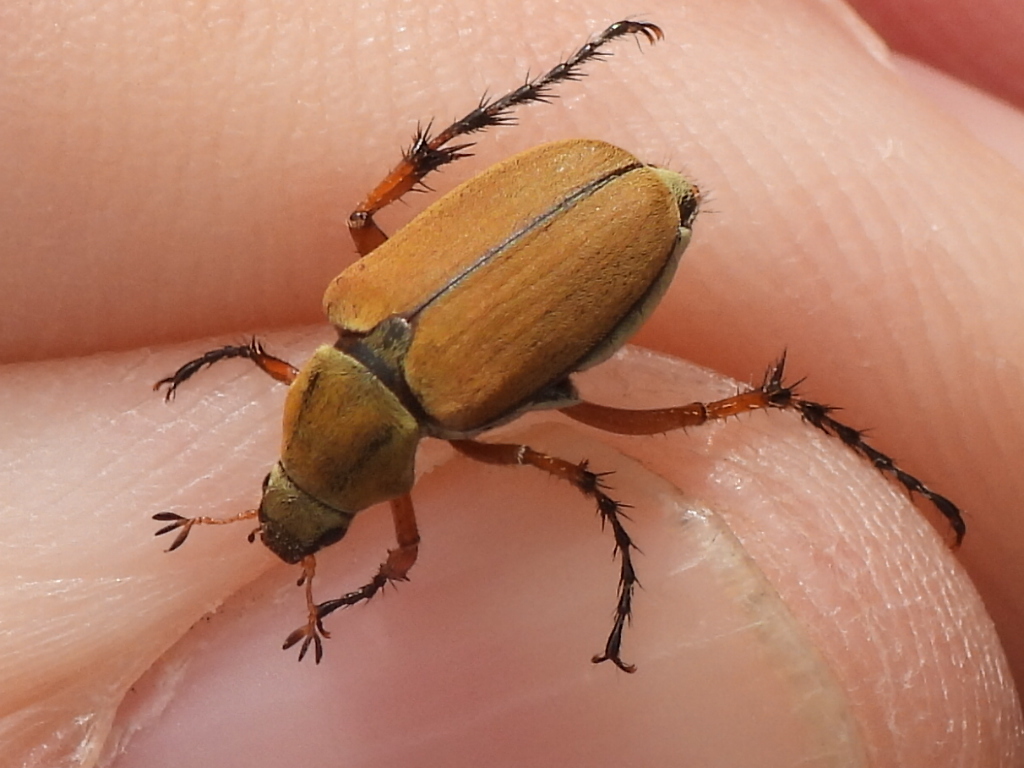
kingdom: Animalia
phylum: Arthropoda
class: Insecta
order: Coleoptera
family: Scarabaeidae
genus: Macrodactylus
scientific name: Macrodactylus subspinosus
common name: American rose chafer
